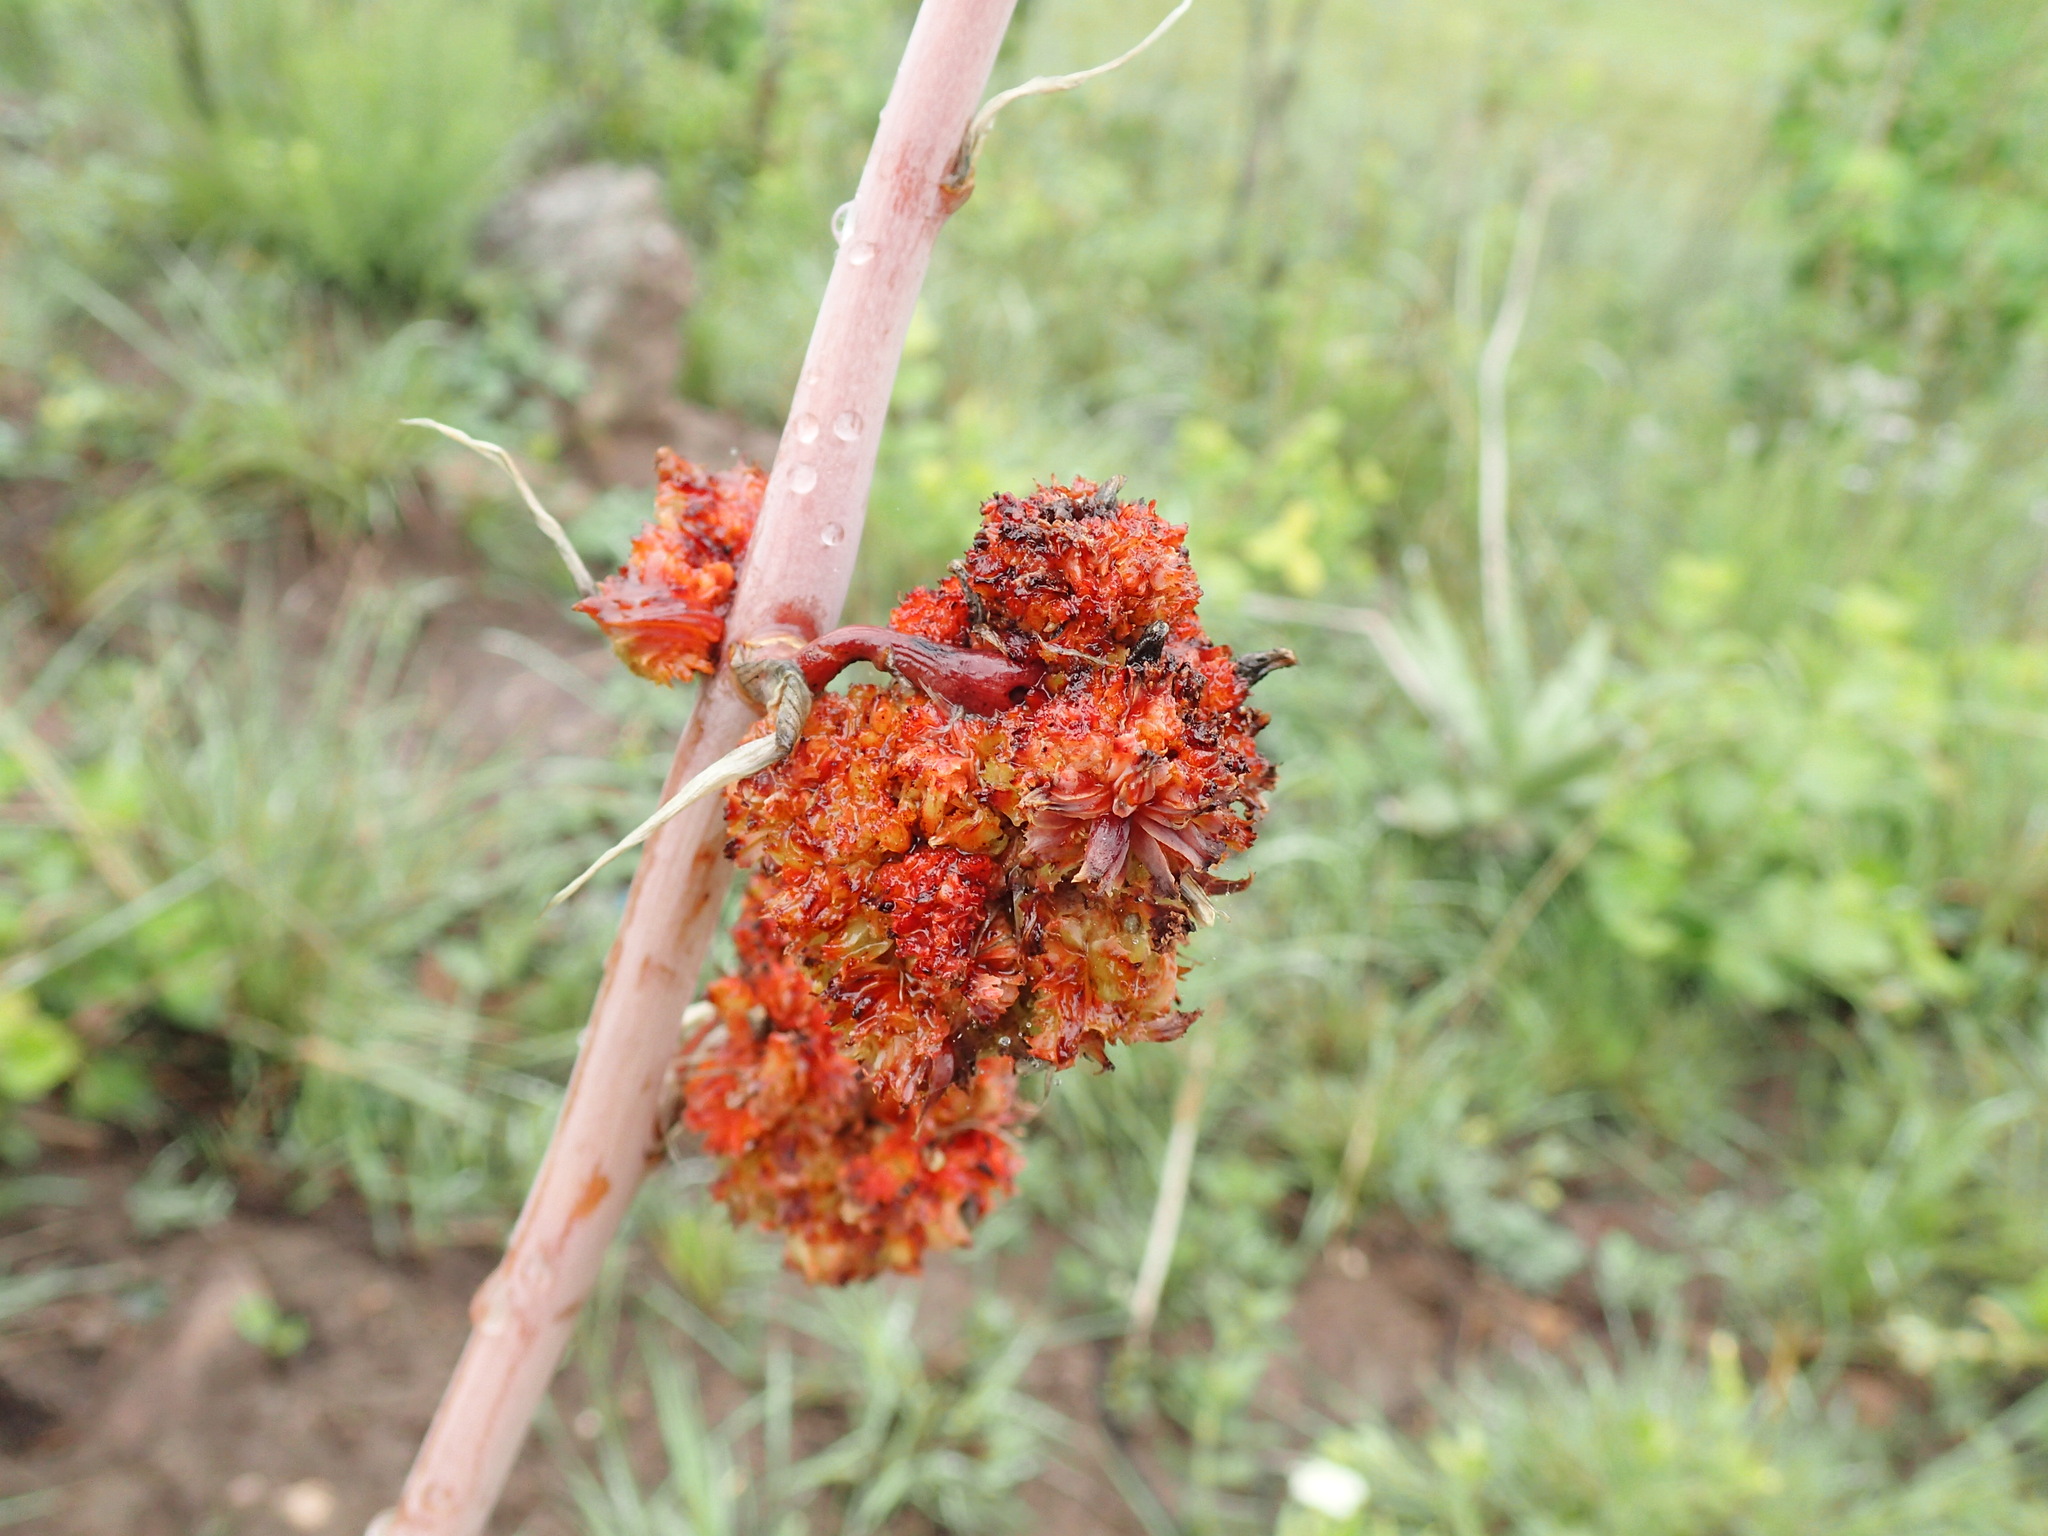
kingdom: Animalia
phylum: Arthropoda
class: Arachnida
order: Trombidiformes
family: Eriophyidae
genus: Aceria
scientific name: Aceria aloinis
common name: Mite
